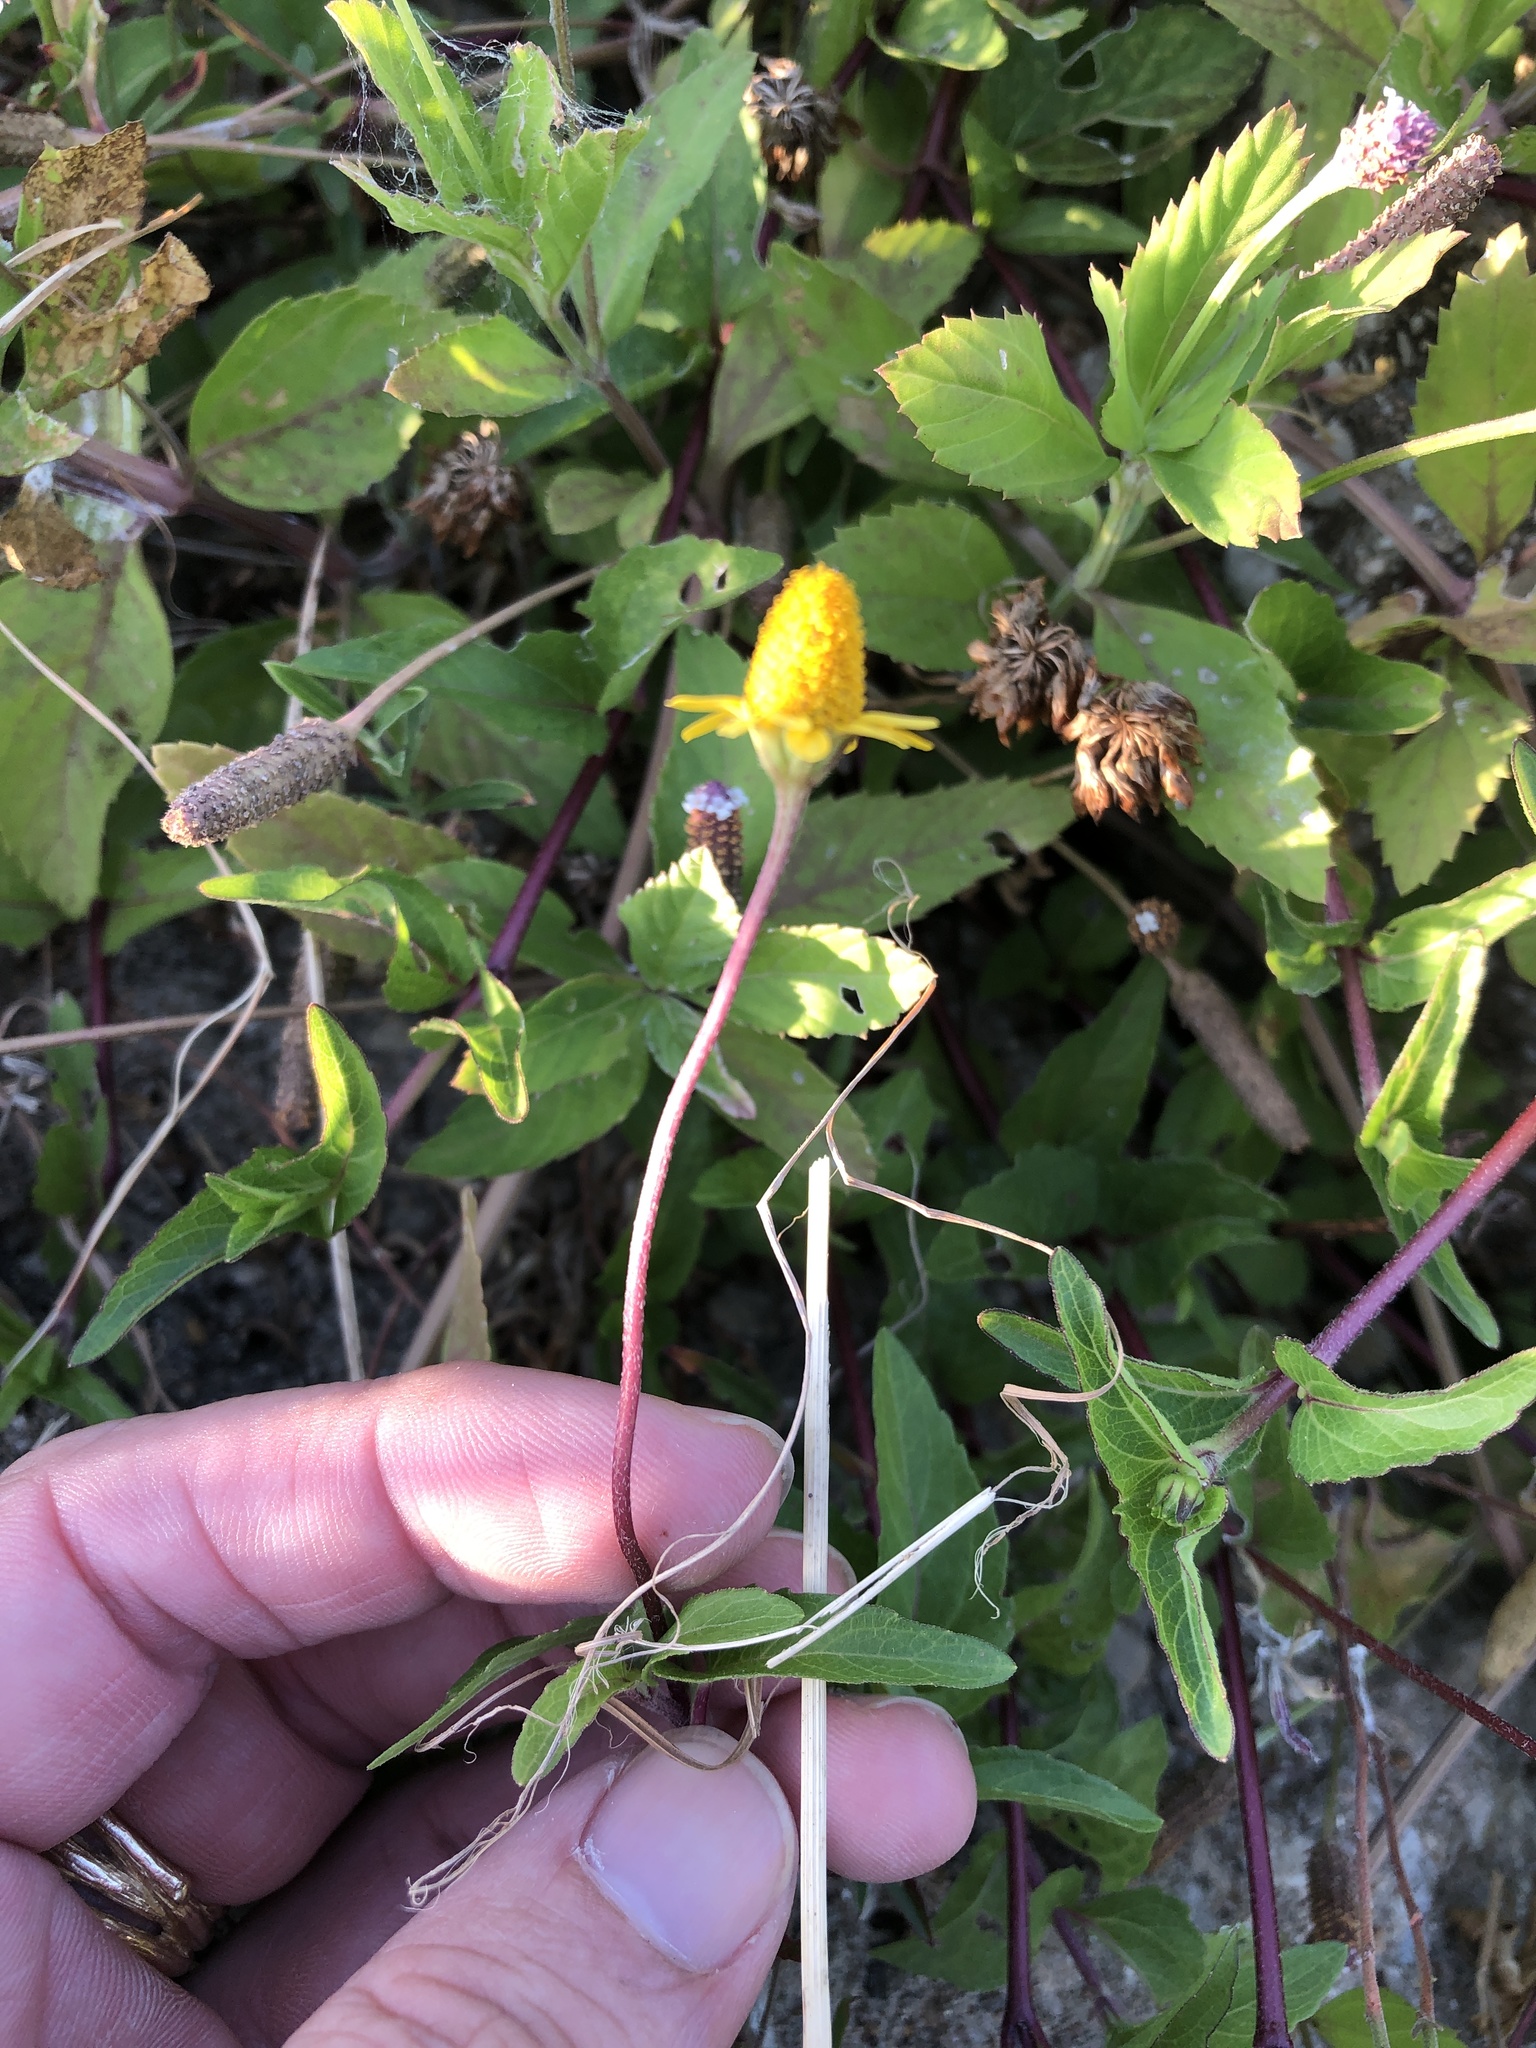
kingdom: Plantae
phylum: Tracheophyta
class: Magnoliopsida
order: Asterales
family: Asteraceae
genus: Acmella
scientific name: Acmella repens
